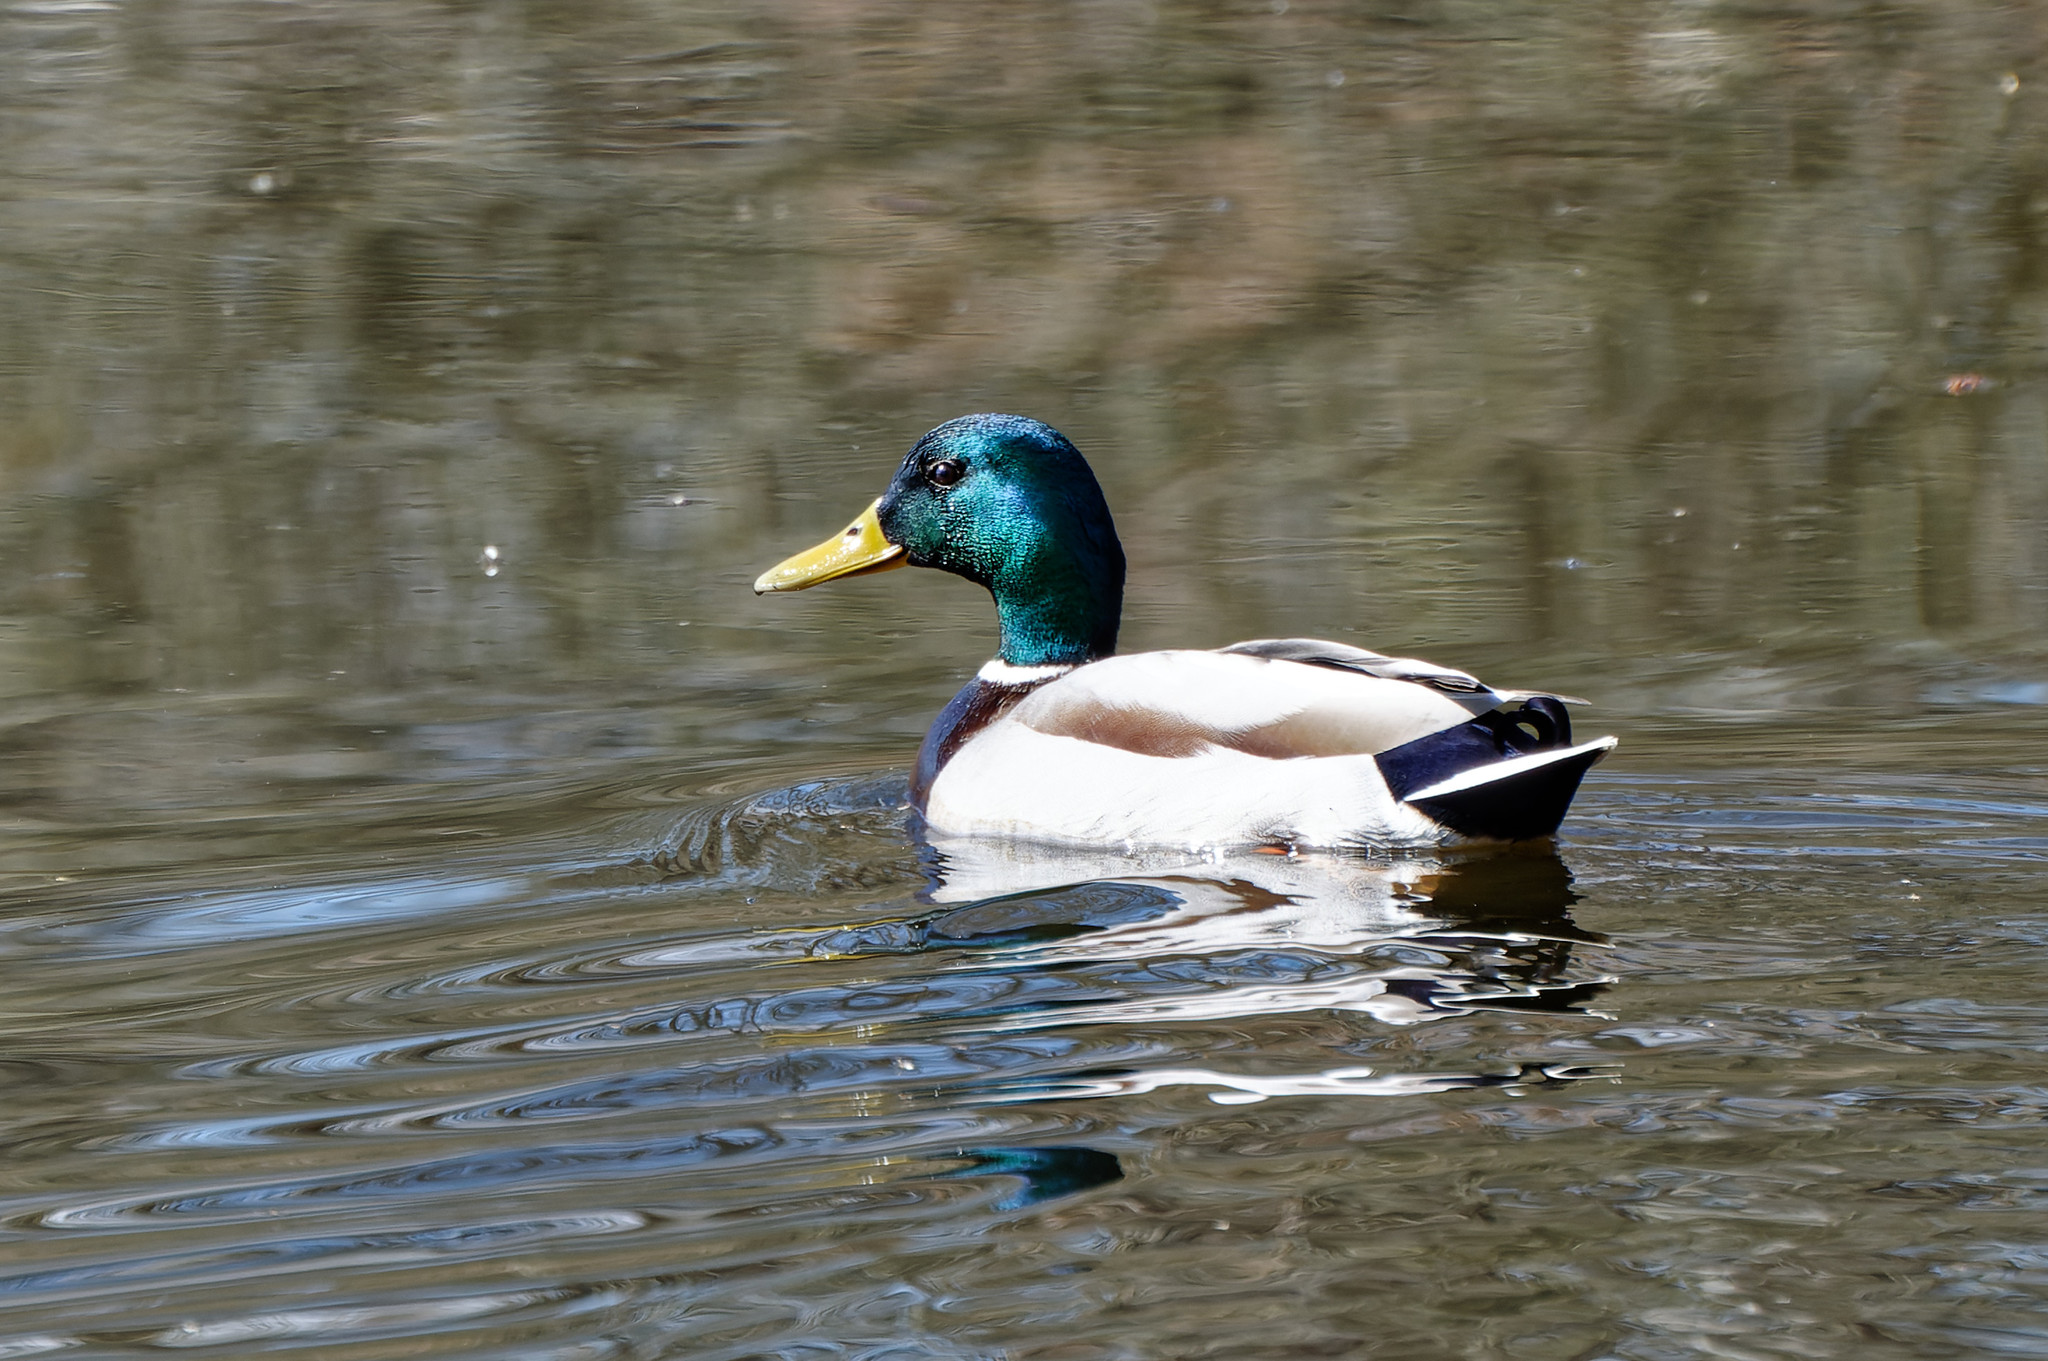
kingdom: Animalia
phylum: Chordata
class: Aves
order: Anseriformes
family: Anatidae
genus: Anas
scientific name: Anas platyrhynchos
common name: Mallard
